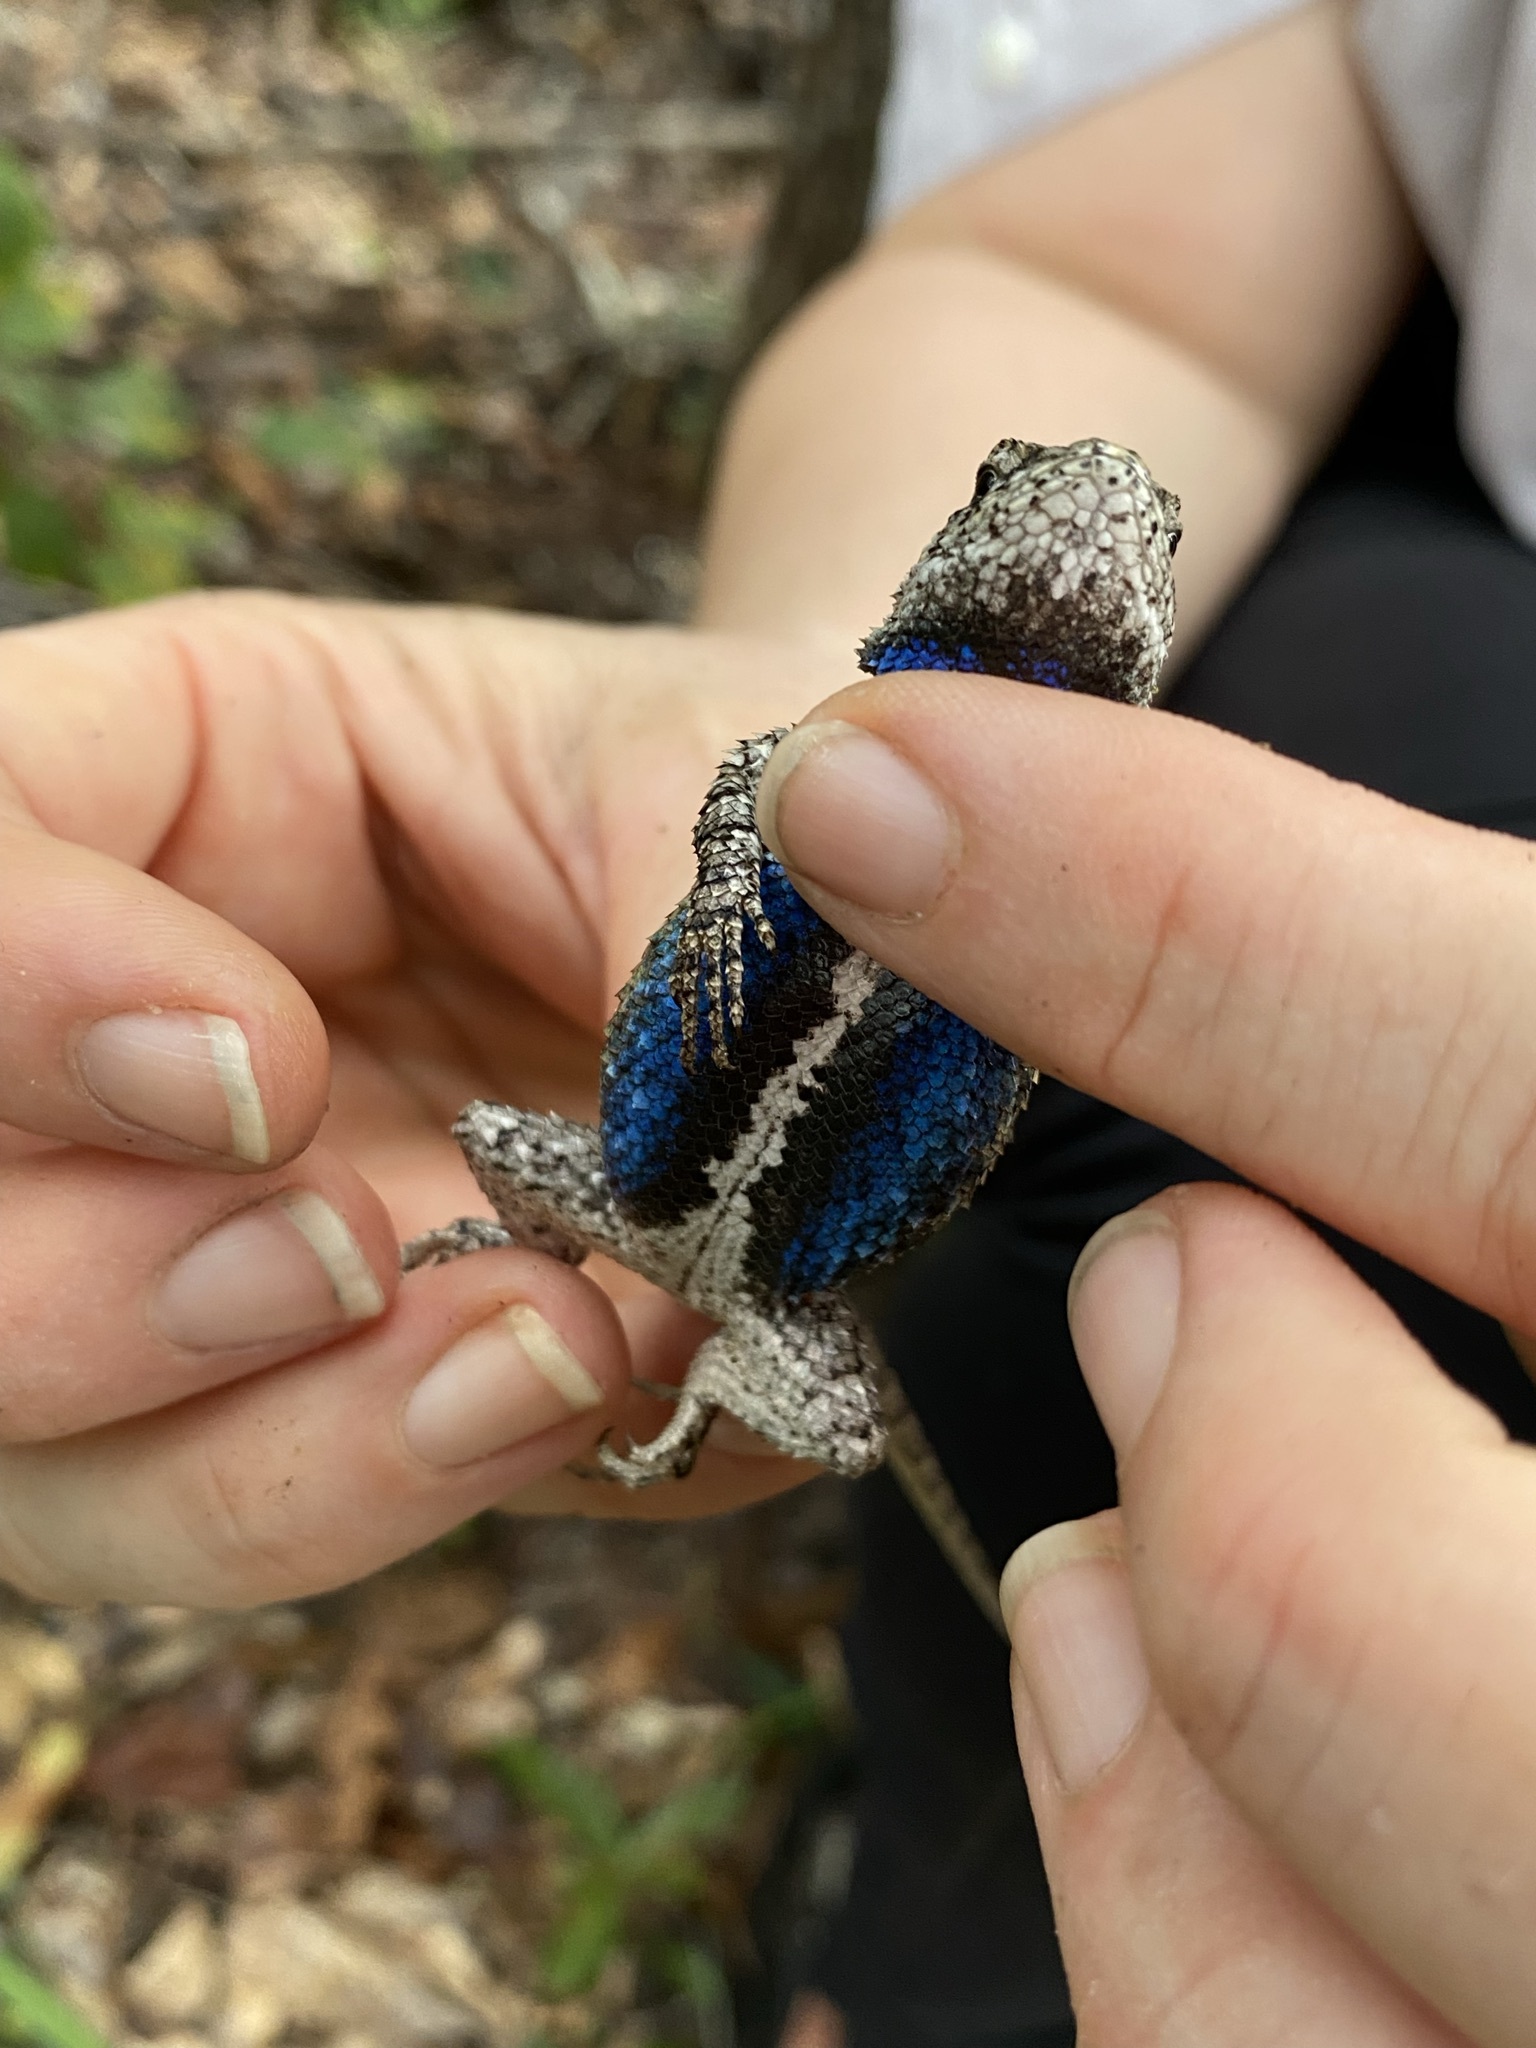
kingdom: Animalia
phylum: Chordata
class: Squamata
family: Phrynosomatidae
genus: Sceloporus
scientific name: Sceloporus undulatus
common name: Eastern fence lizard
